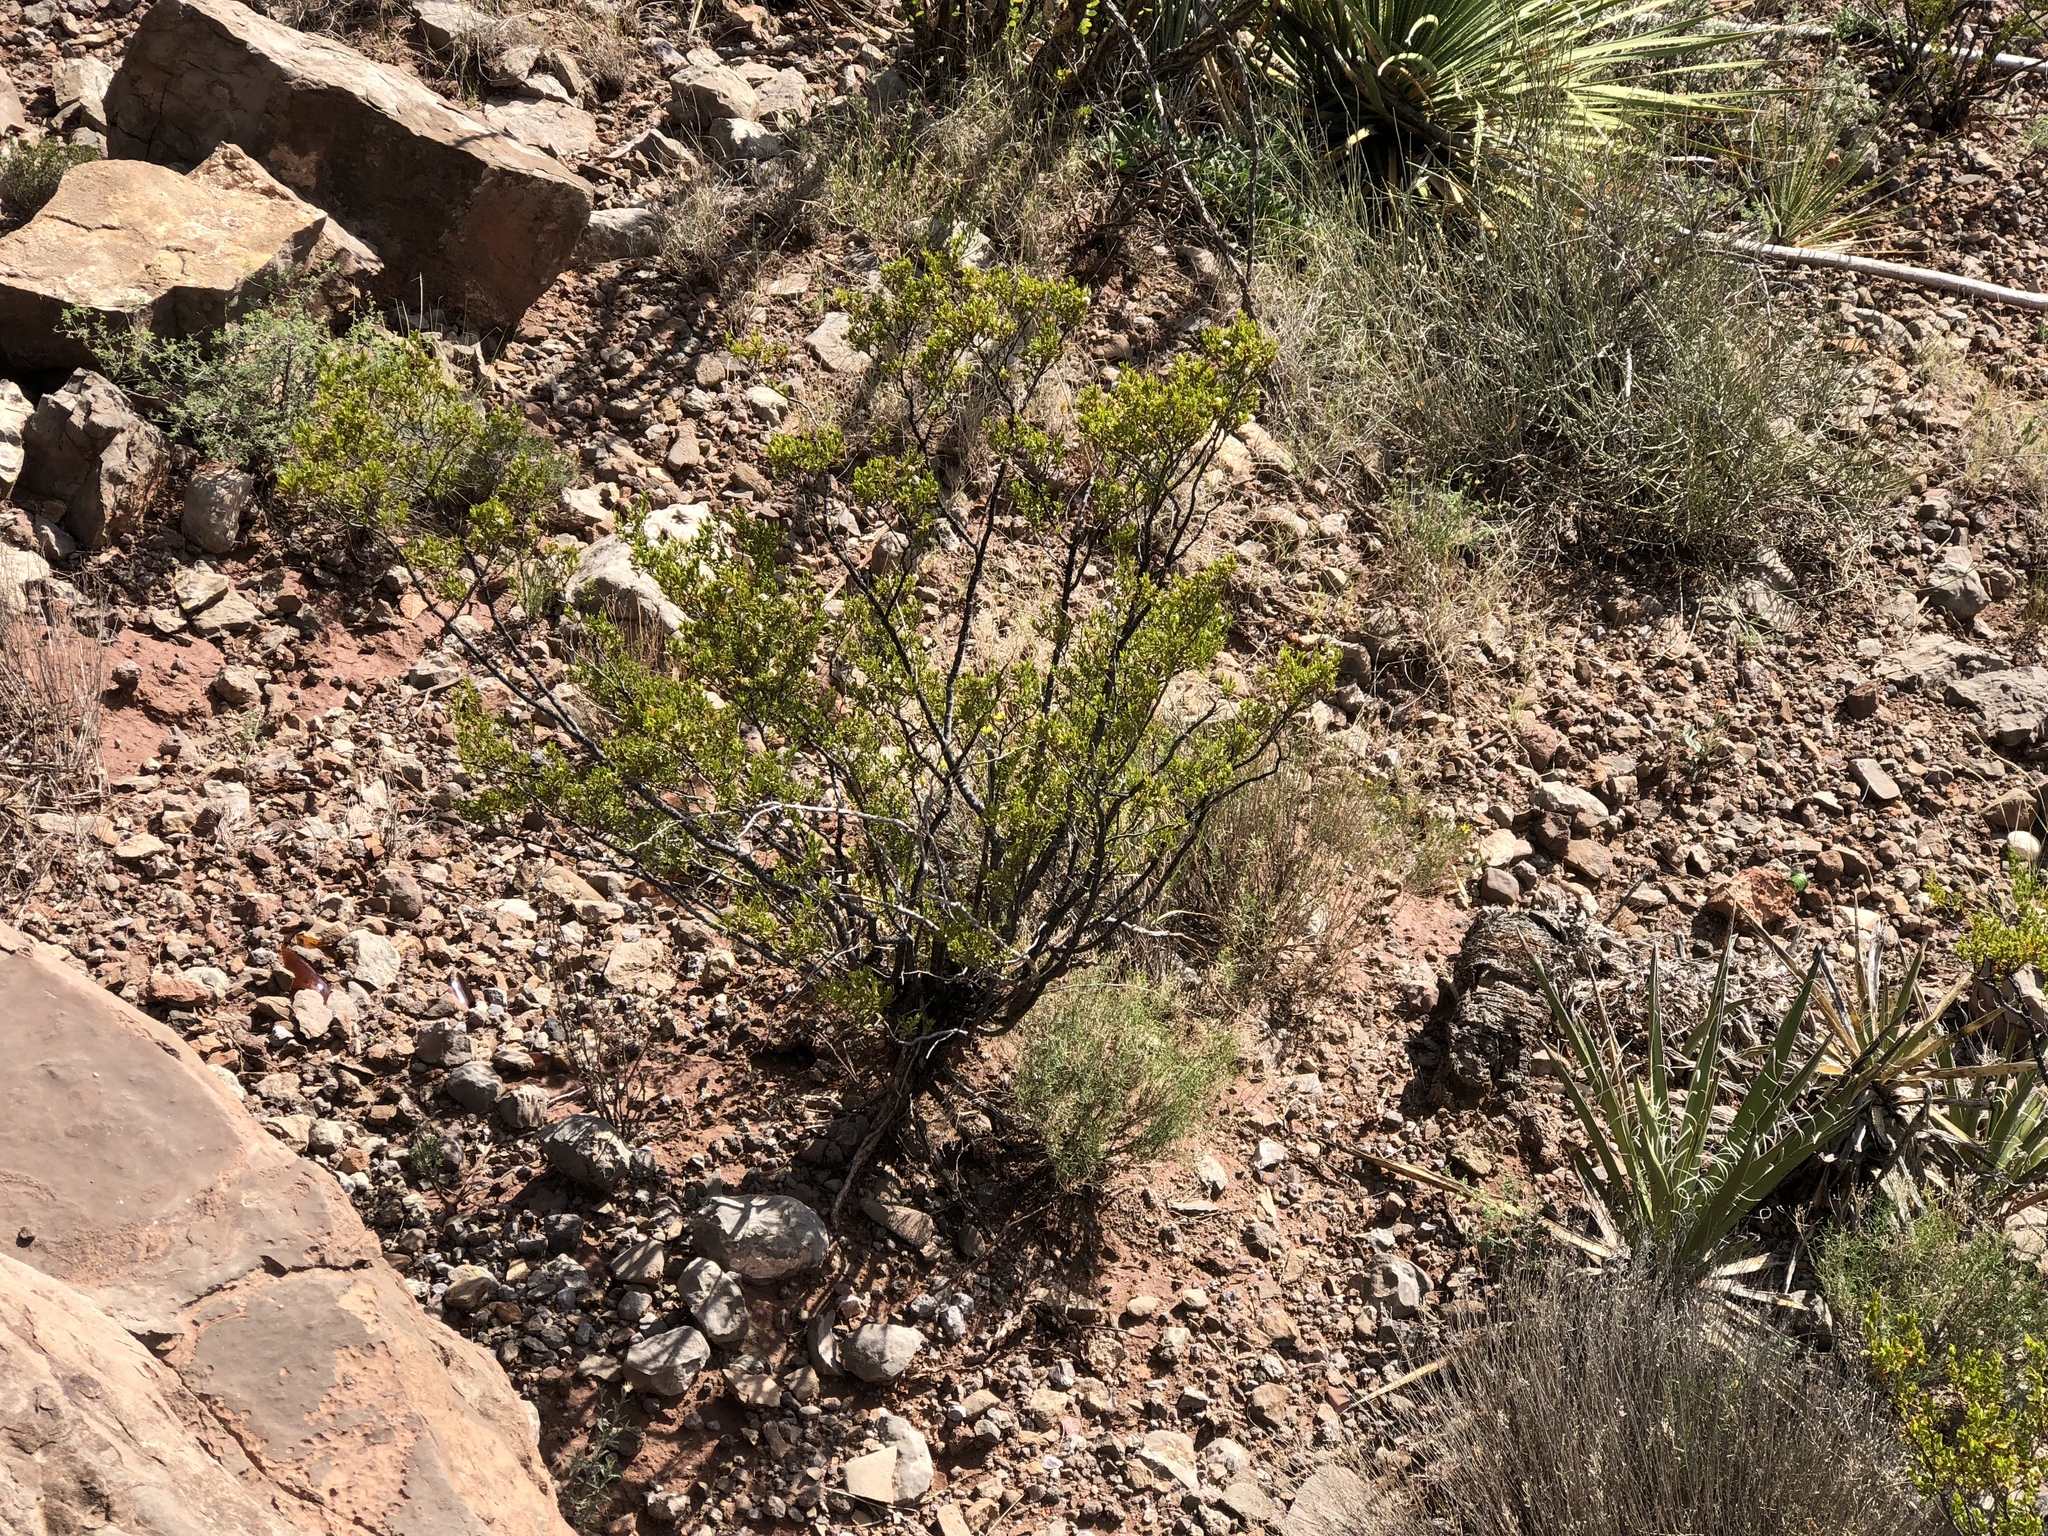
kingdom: Plantae
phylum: Tracheophyta
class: Magnoliopsida
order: Zygophyllales
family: Zygophyllaceae
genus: Larrea
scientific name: Larrea tridentata
